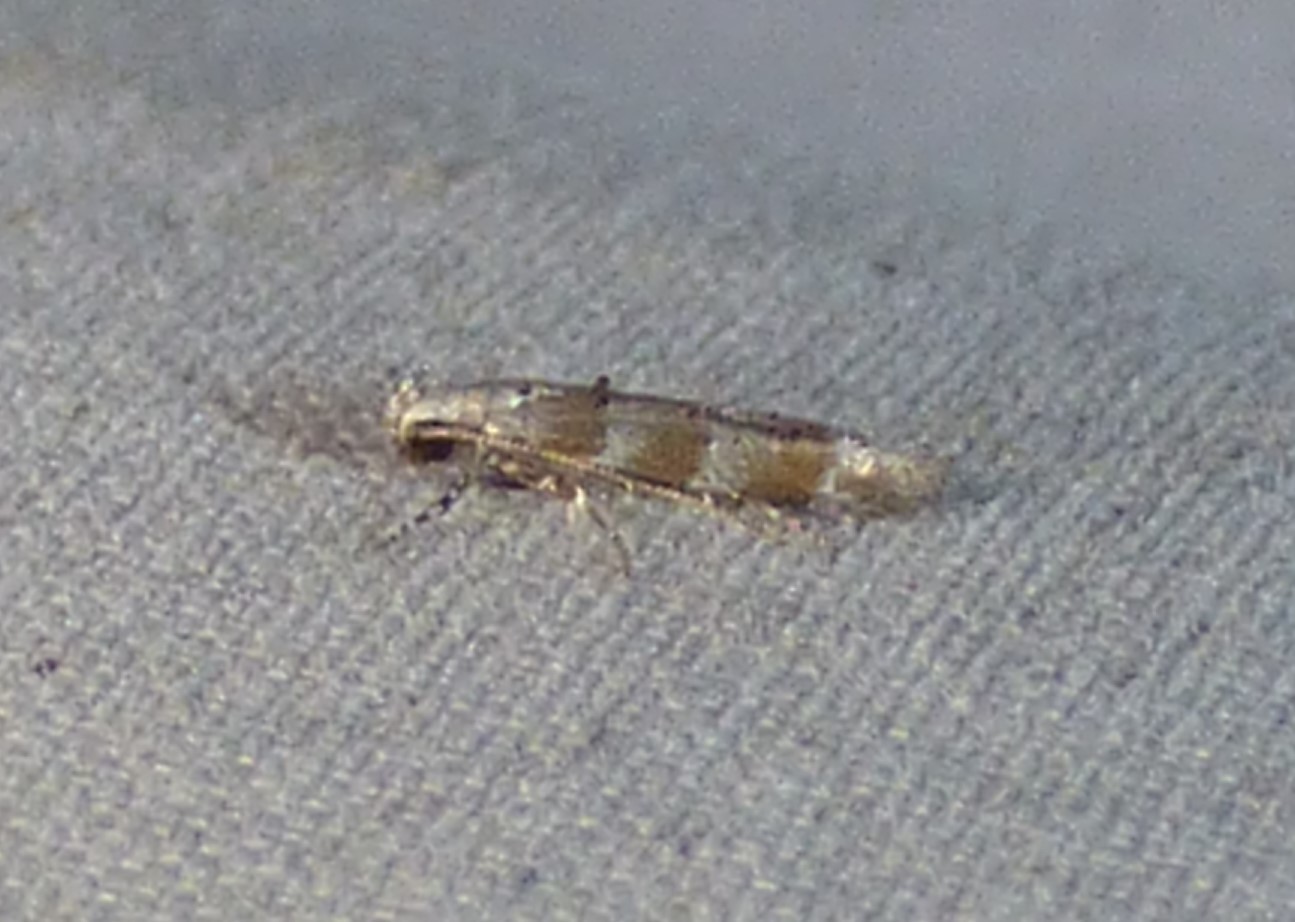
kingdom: Animalia
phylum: Arthropoda
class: Insecta
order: Lepidoptera
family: Gelechiidae
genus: Exoteleia
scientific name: Exoteleia pinifoliella
